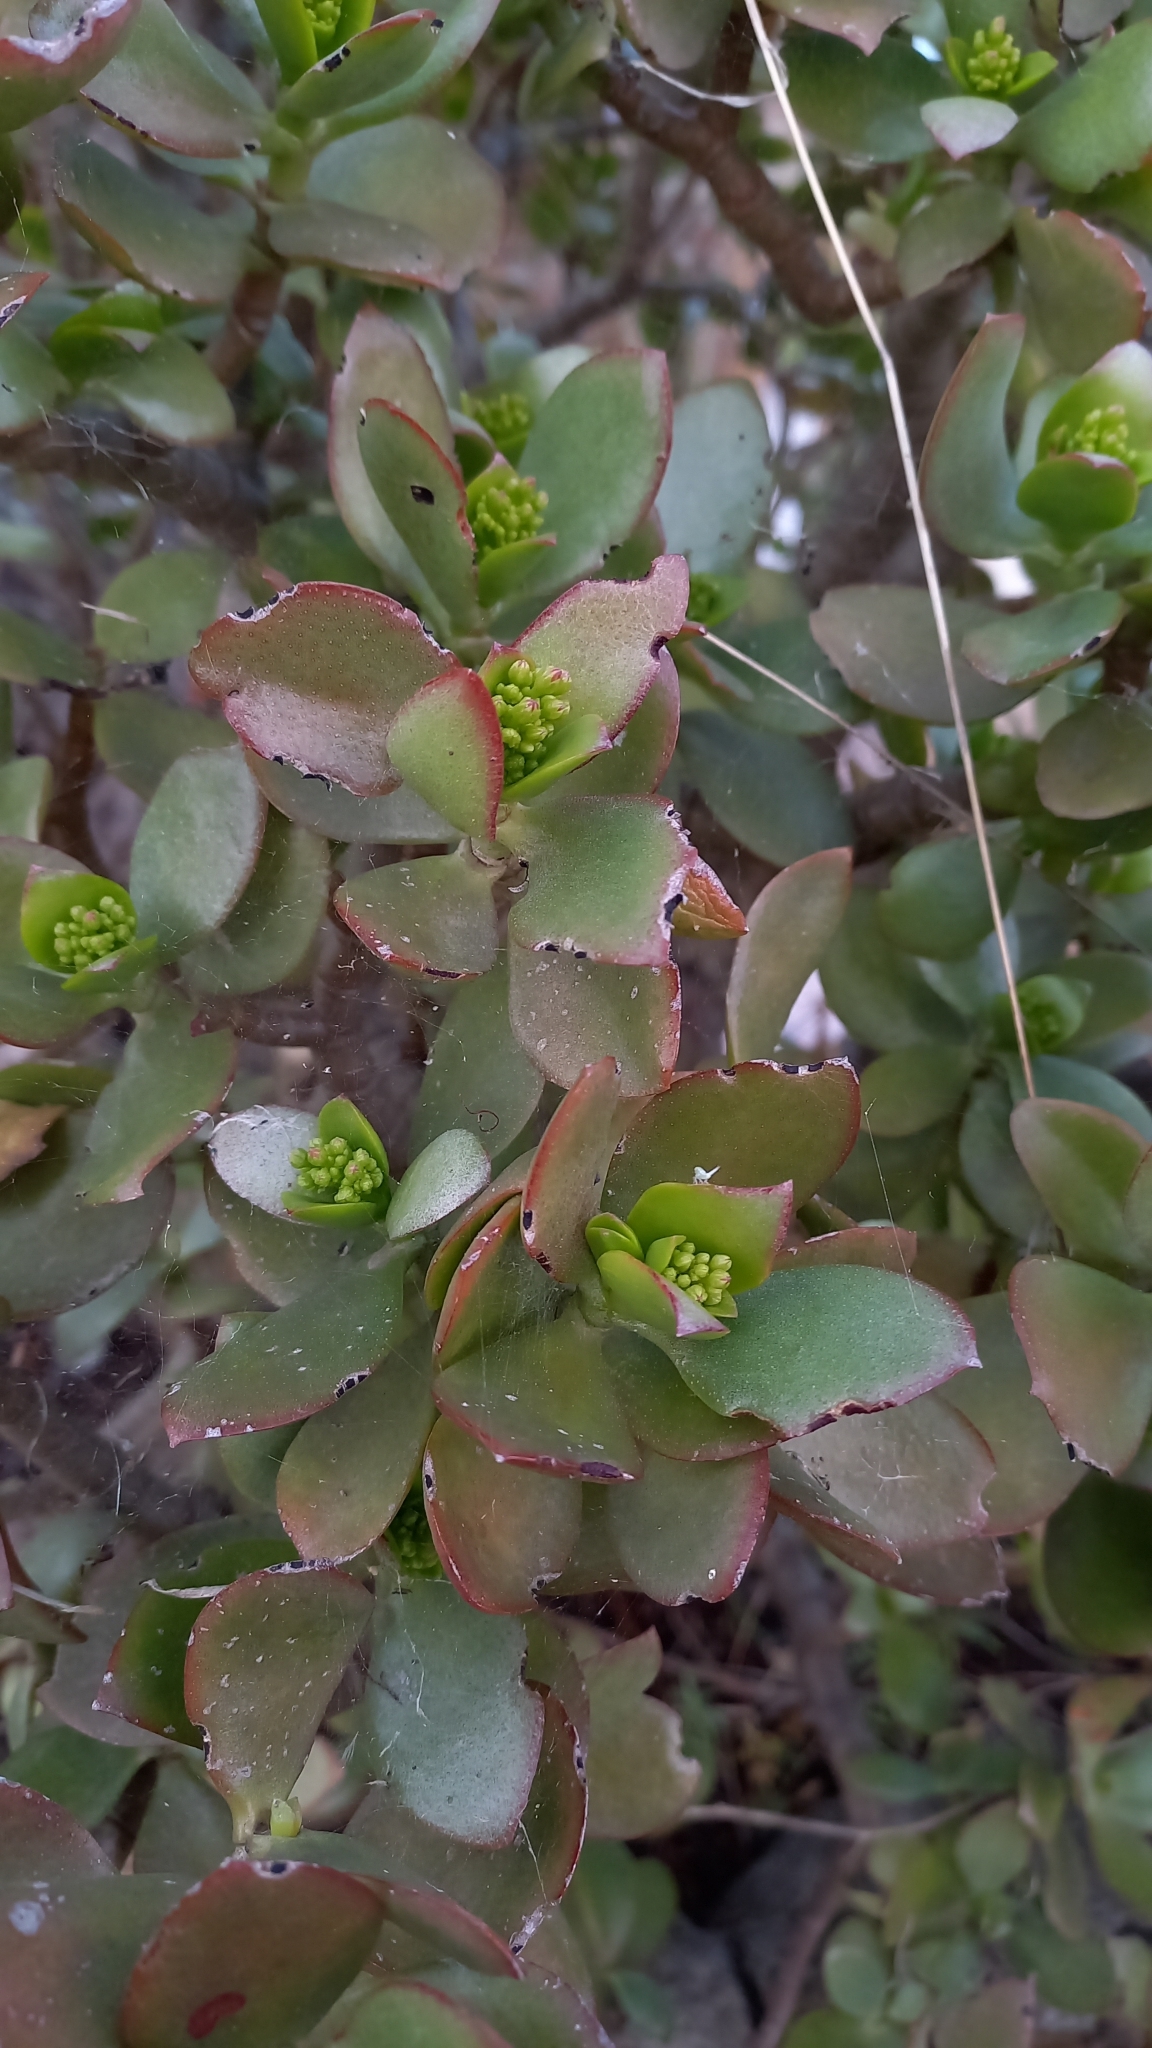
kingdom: Plantae
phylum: Tracheophyta
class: Magnoliopsida
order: Saxifragales
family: Crassulaceae
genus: Crassula
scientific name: Crassula ovata
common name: Jade plant
